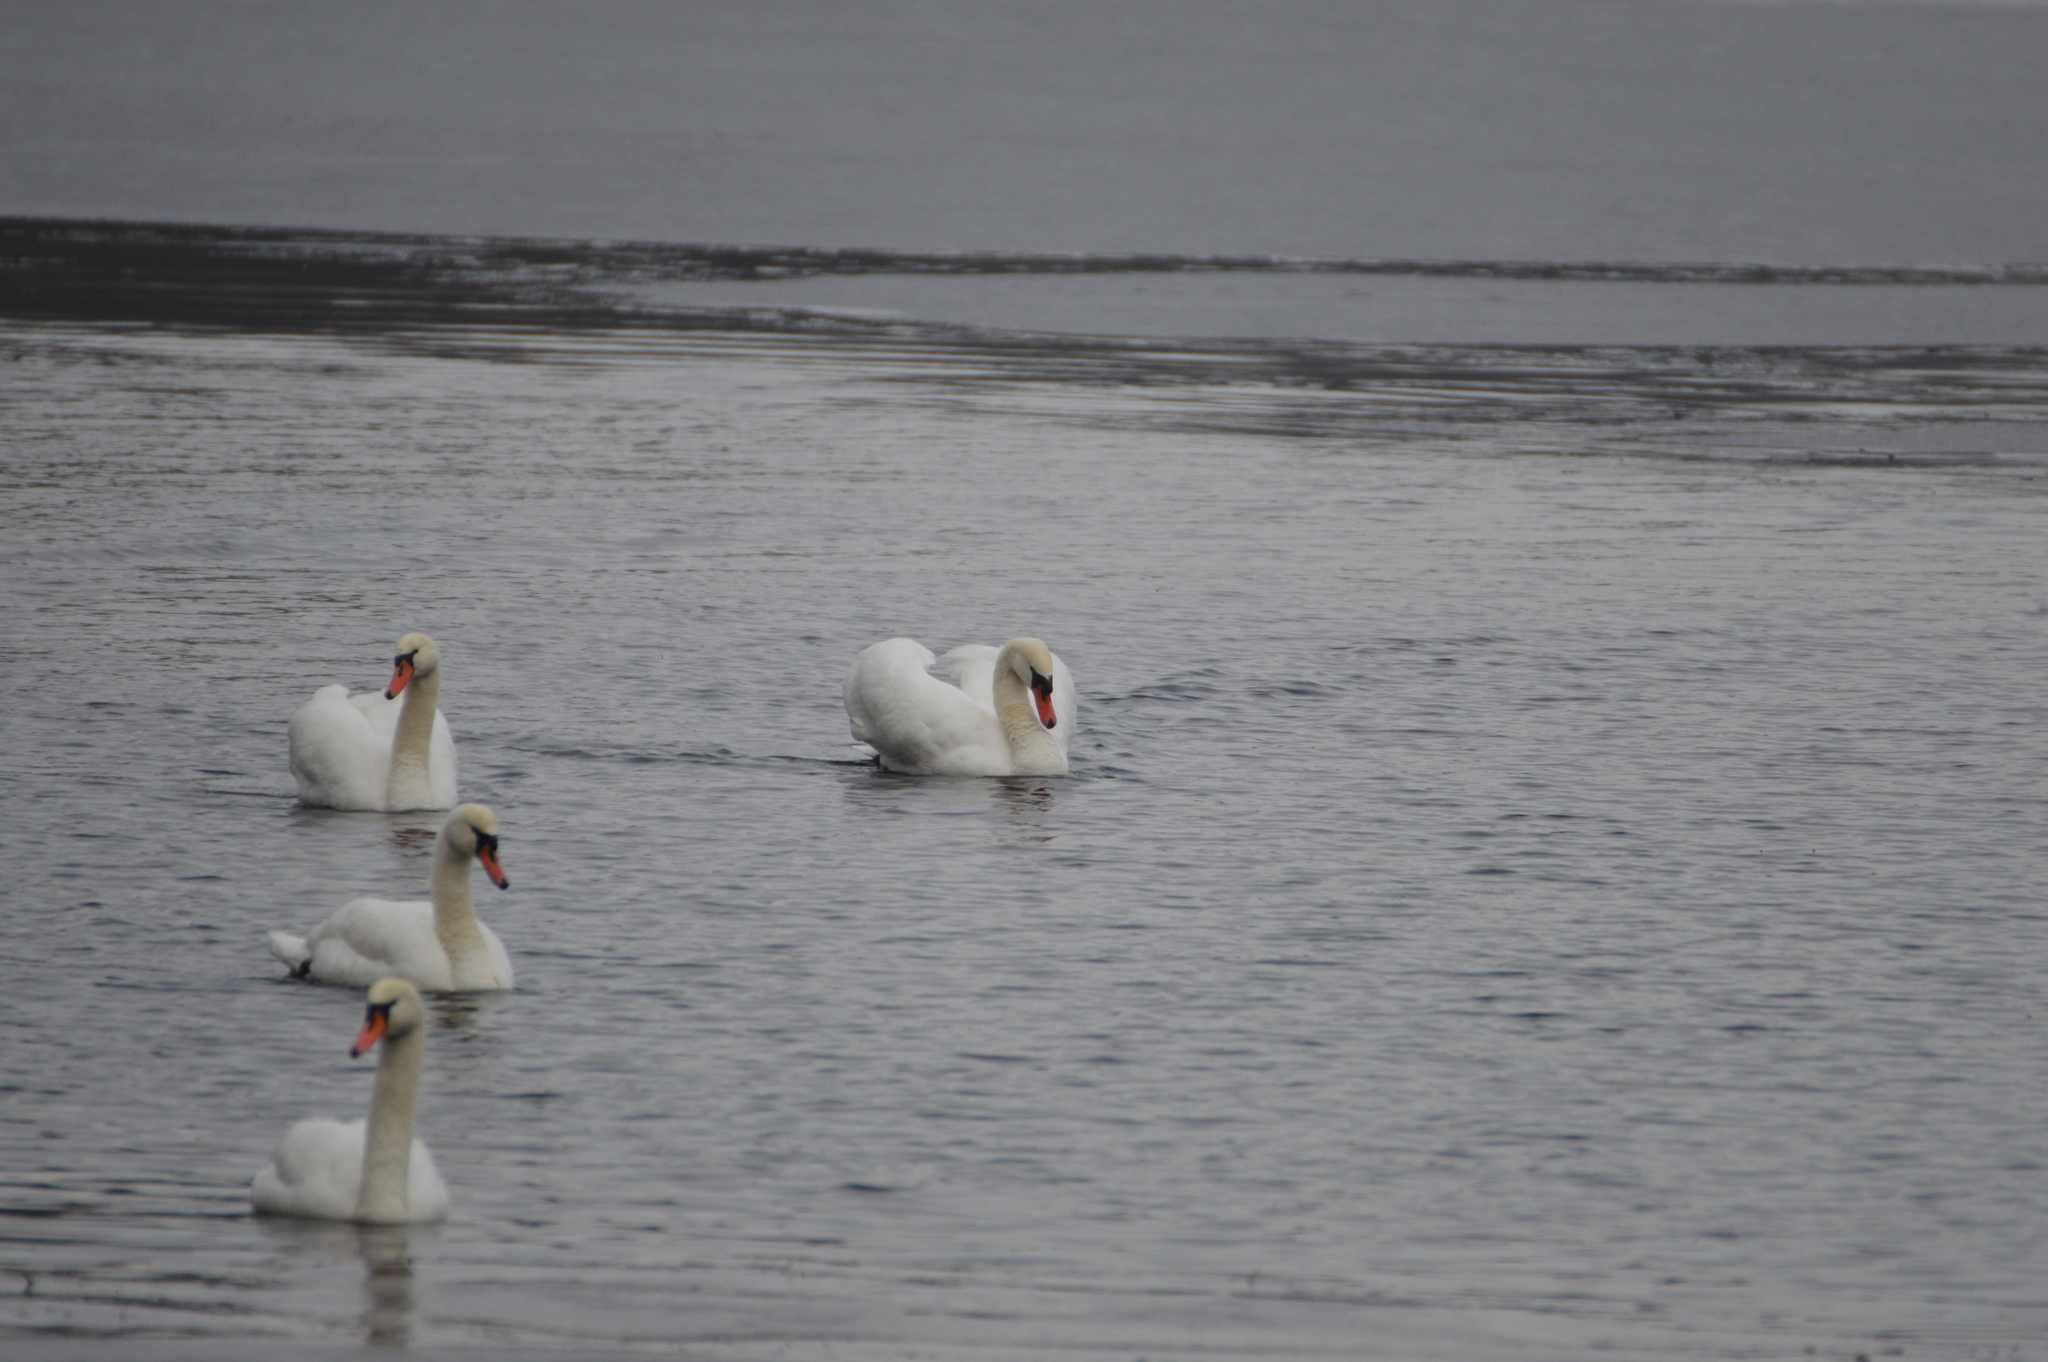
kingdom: Animalia
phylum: Chordata
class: Aves
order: Anseriformes
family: Anatidae
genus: Cygnus
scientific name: Cygnus olor
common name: Mute swan
